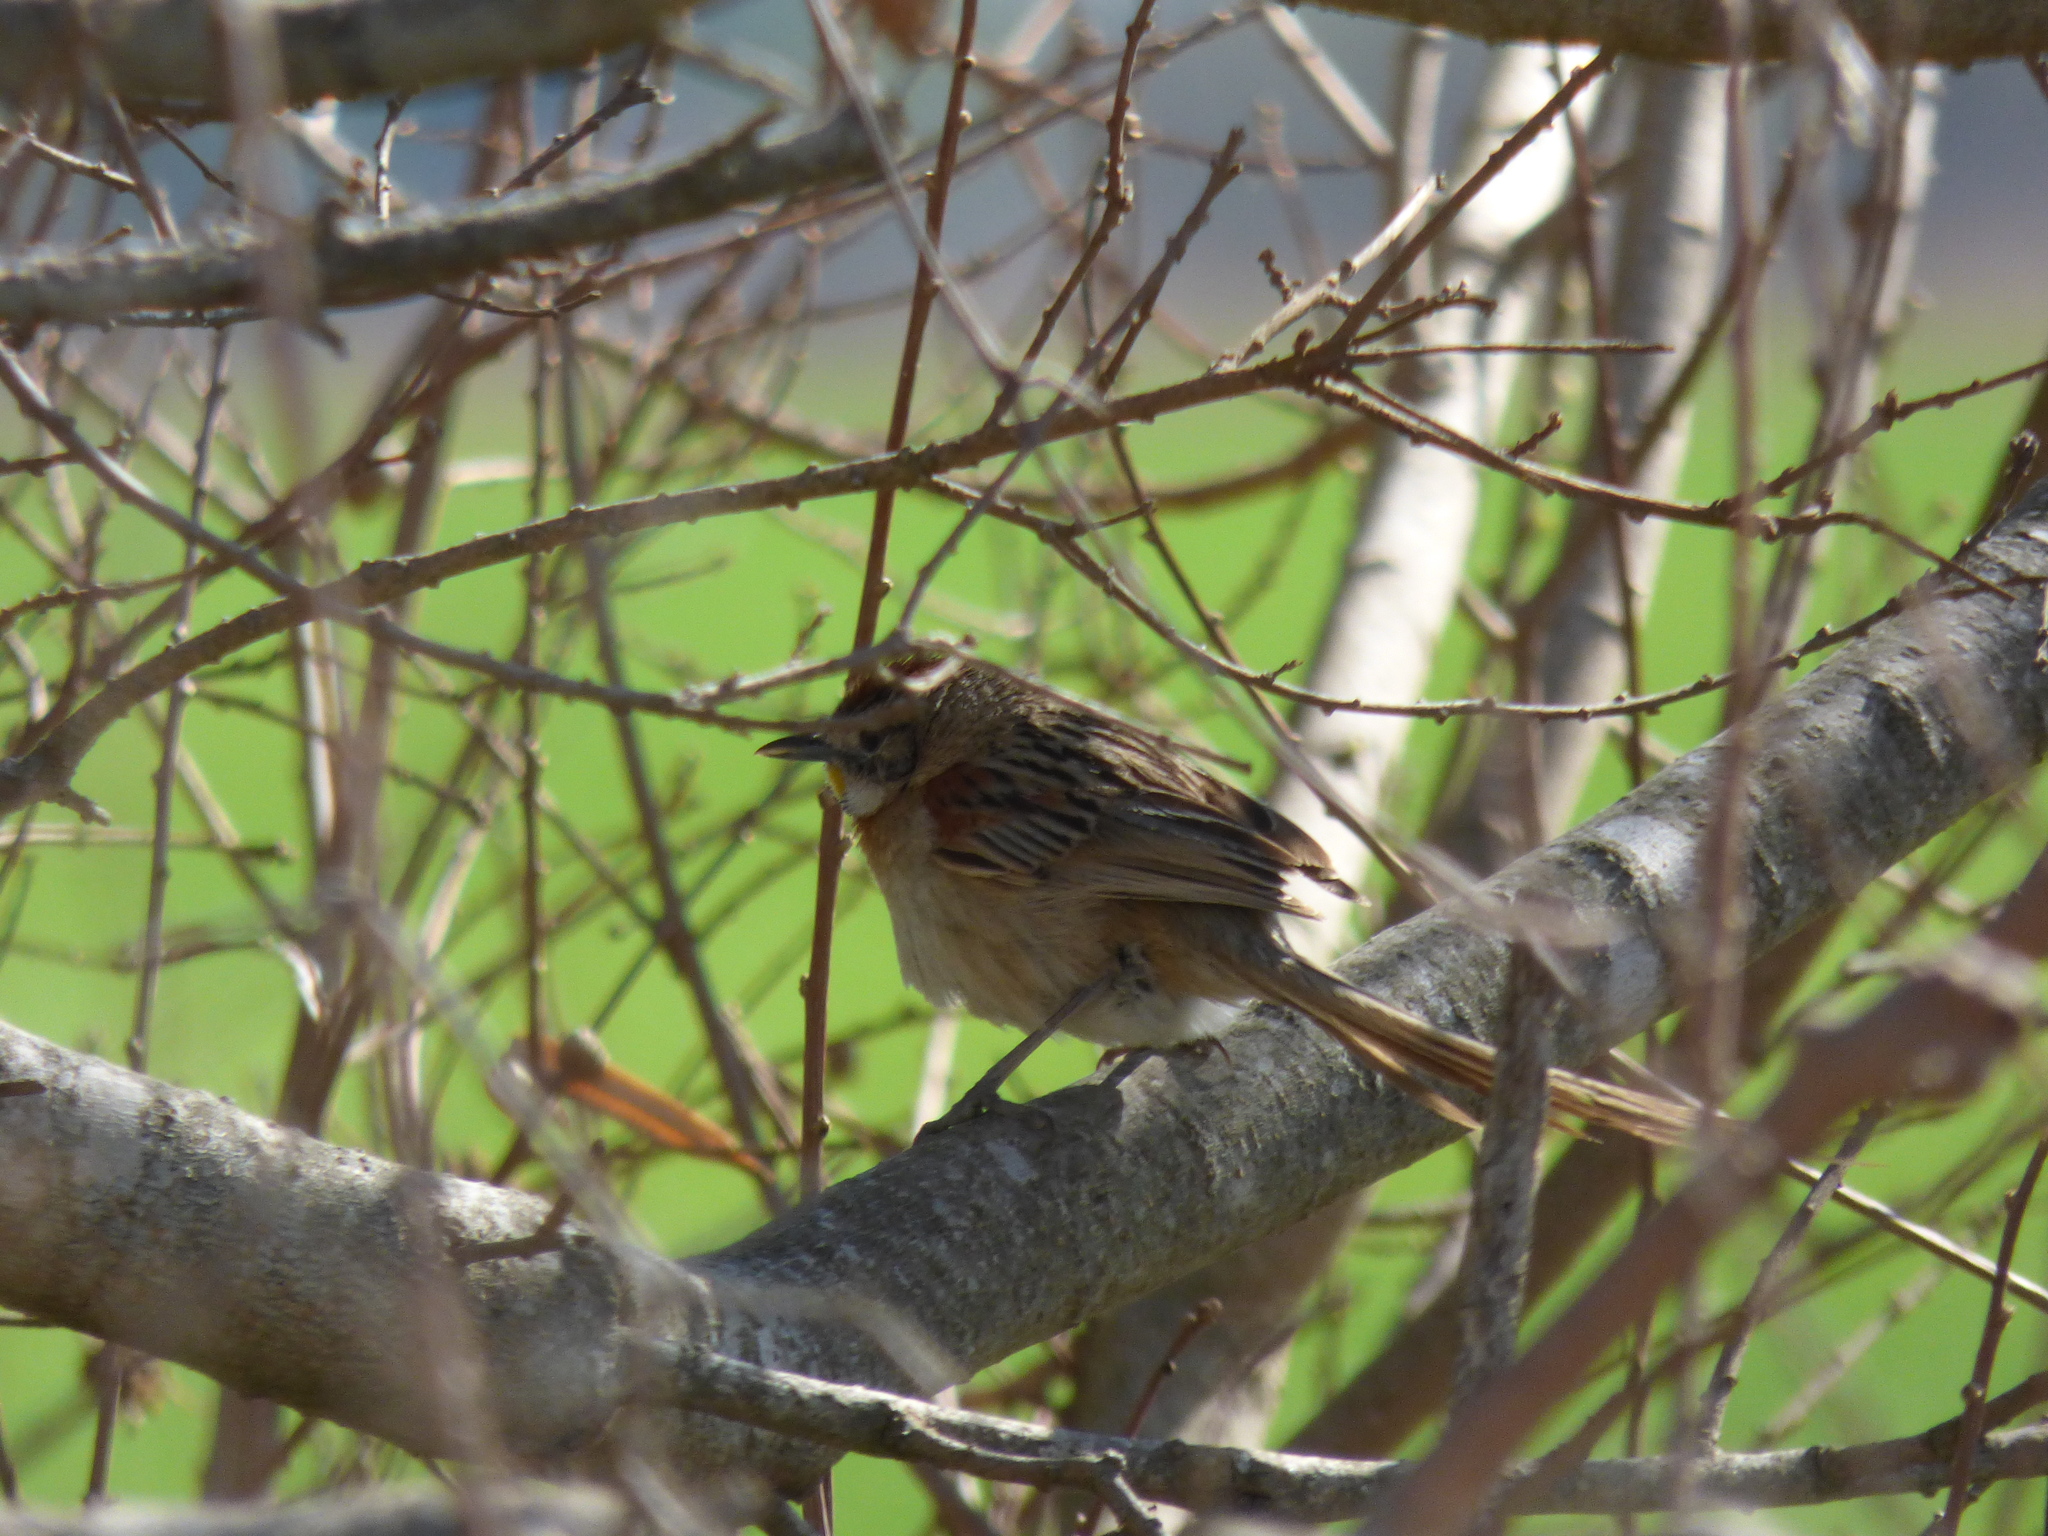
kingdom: Animalia
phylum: Chordata
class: Aves
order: Passeriformes
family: Furnariidae
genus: Schoeniophylax
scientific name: Schoeniophylax phryganophilus
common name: Chotoy spinetail
